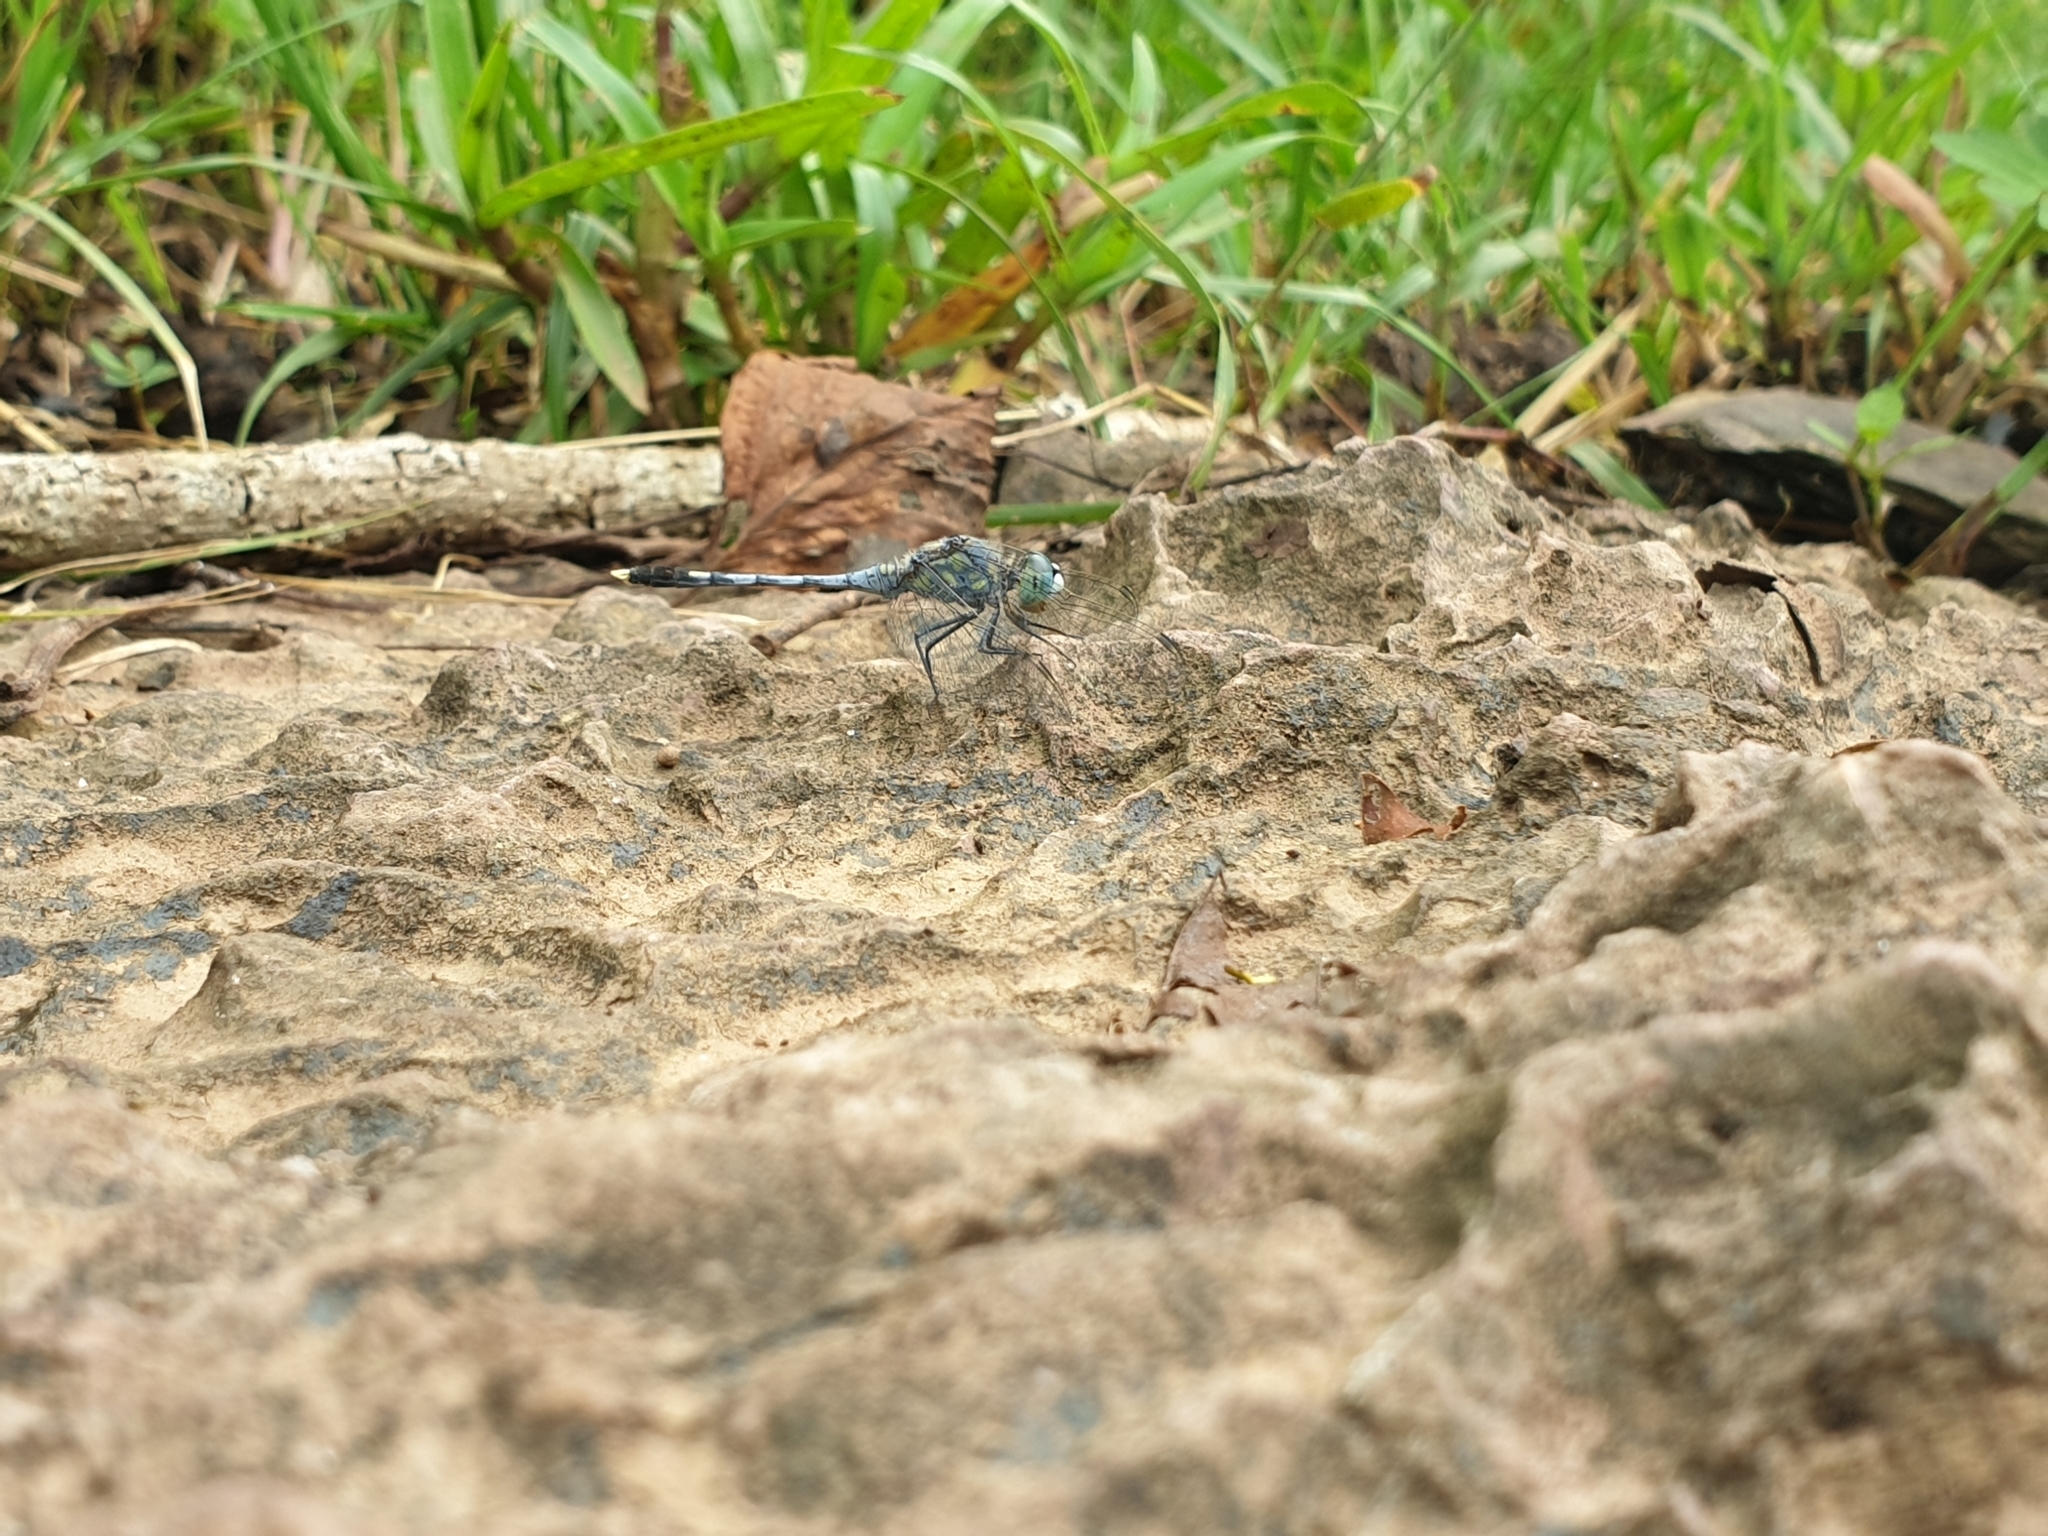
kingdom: Animalia
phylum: Arthropoda
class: Insecta
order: Odonata
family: Libellulidae
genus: Diplacodes
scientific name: Diplacodes trivialis
